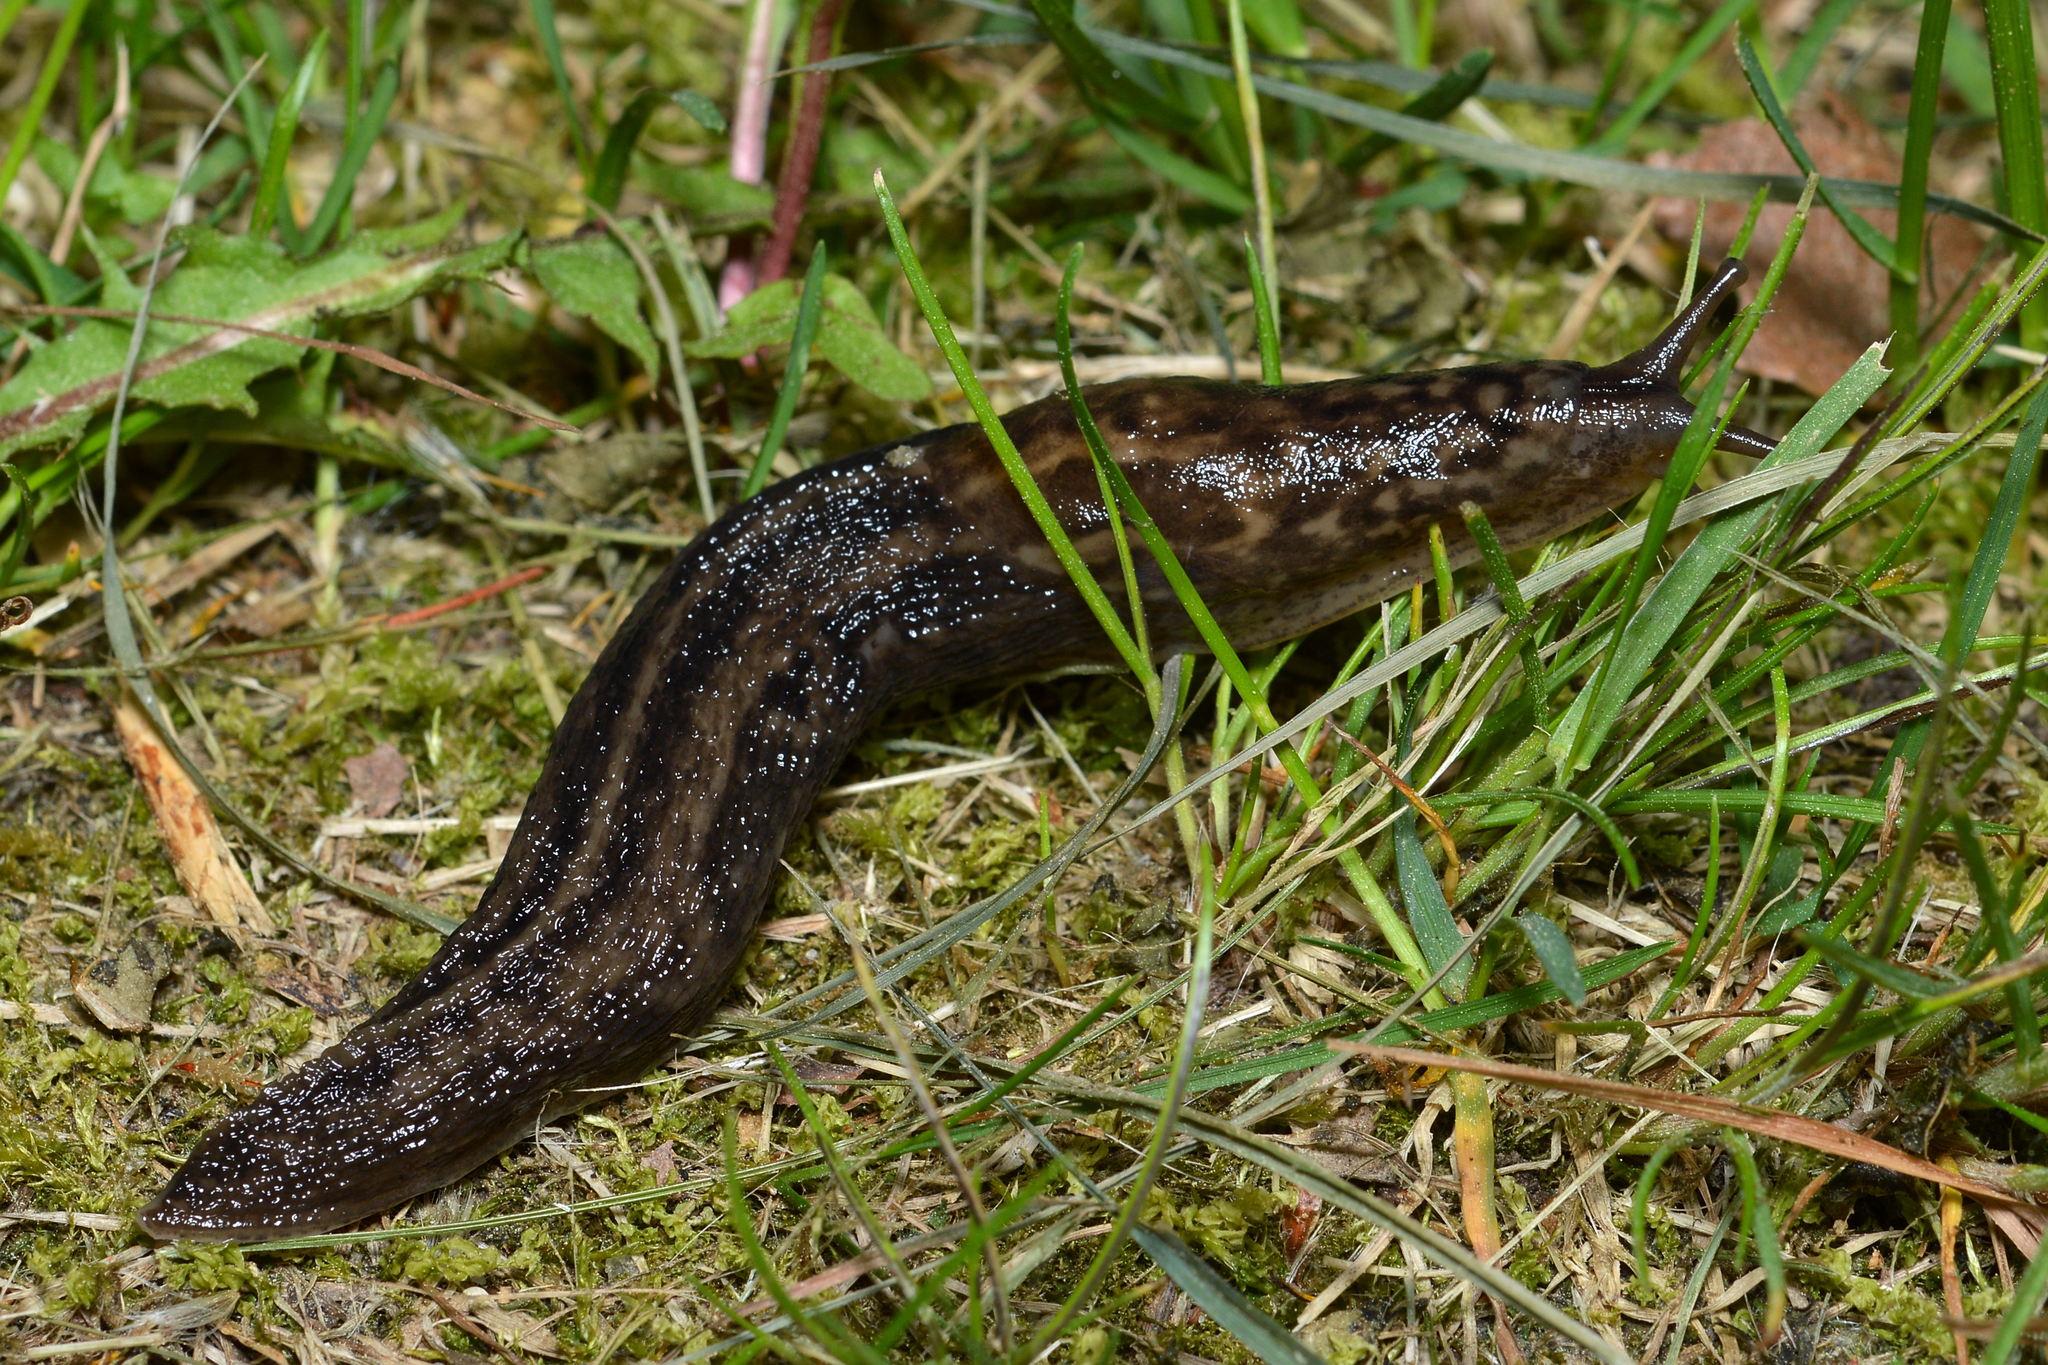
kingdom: Animalia
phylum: Mollusca
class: Gastropoda
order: Stylommatophora
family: Limacidae
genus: Limax
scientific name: Limax maximus
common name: Great grey slug
